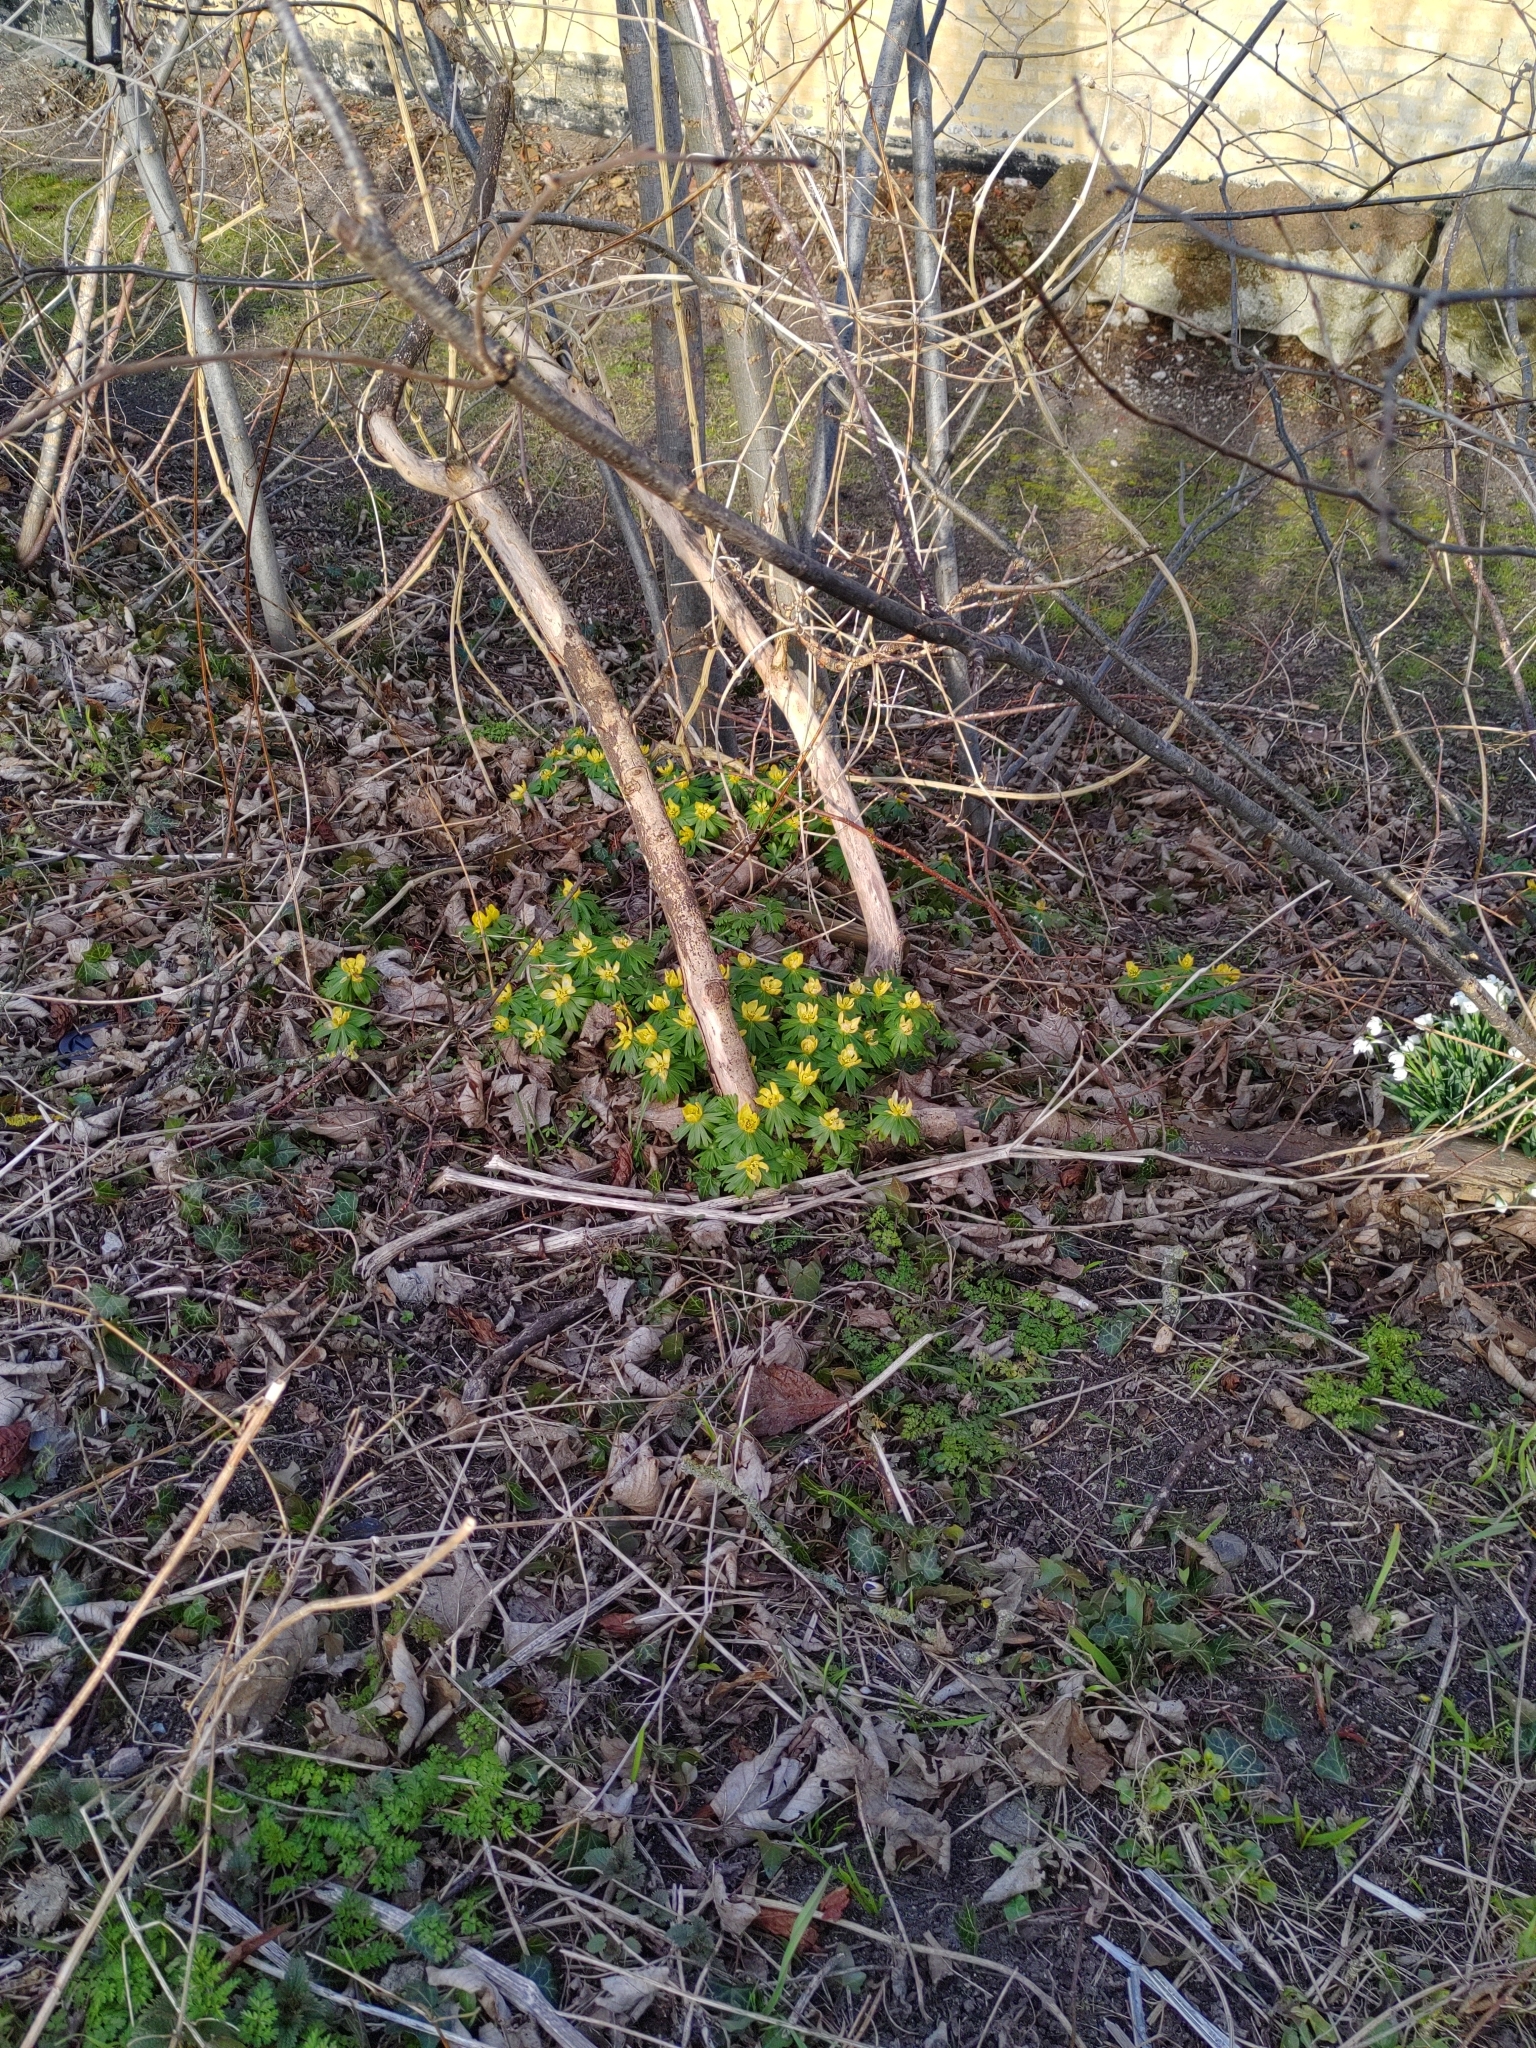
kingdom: Plantae
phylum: Tracheophyta
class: Magnoliopsida
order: Ranunculales
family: Ranunculaceae
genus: Eranthis
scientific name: Eranthis hyemalis
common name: Winter aconite
